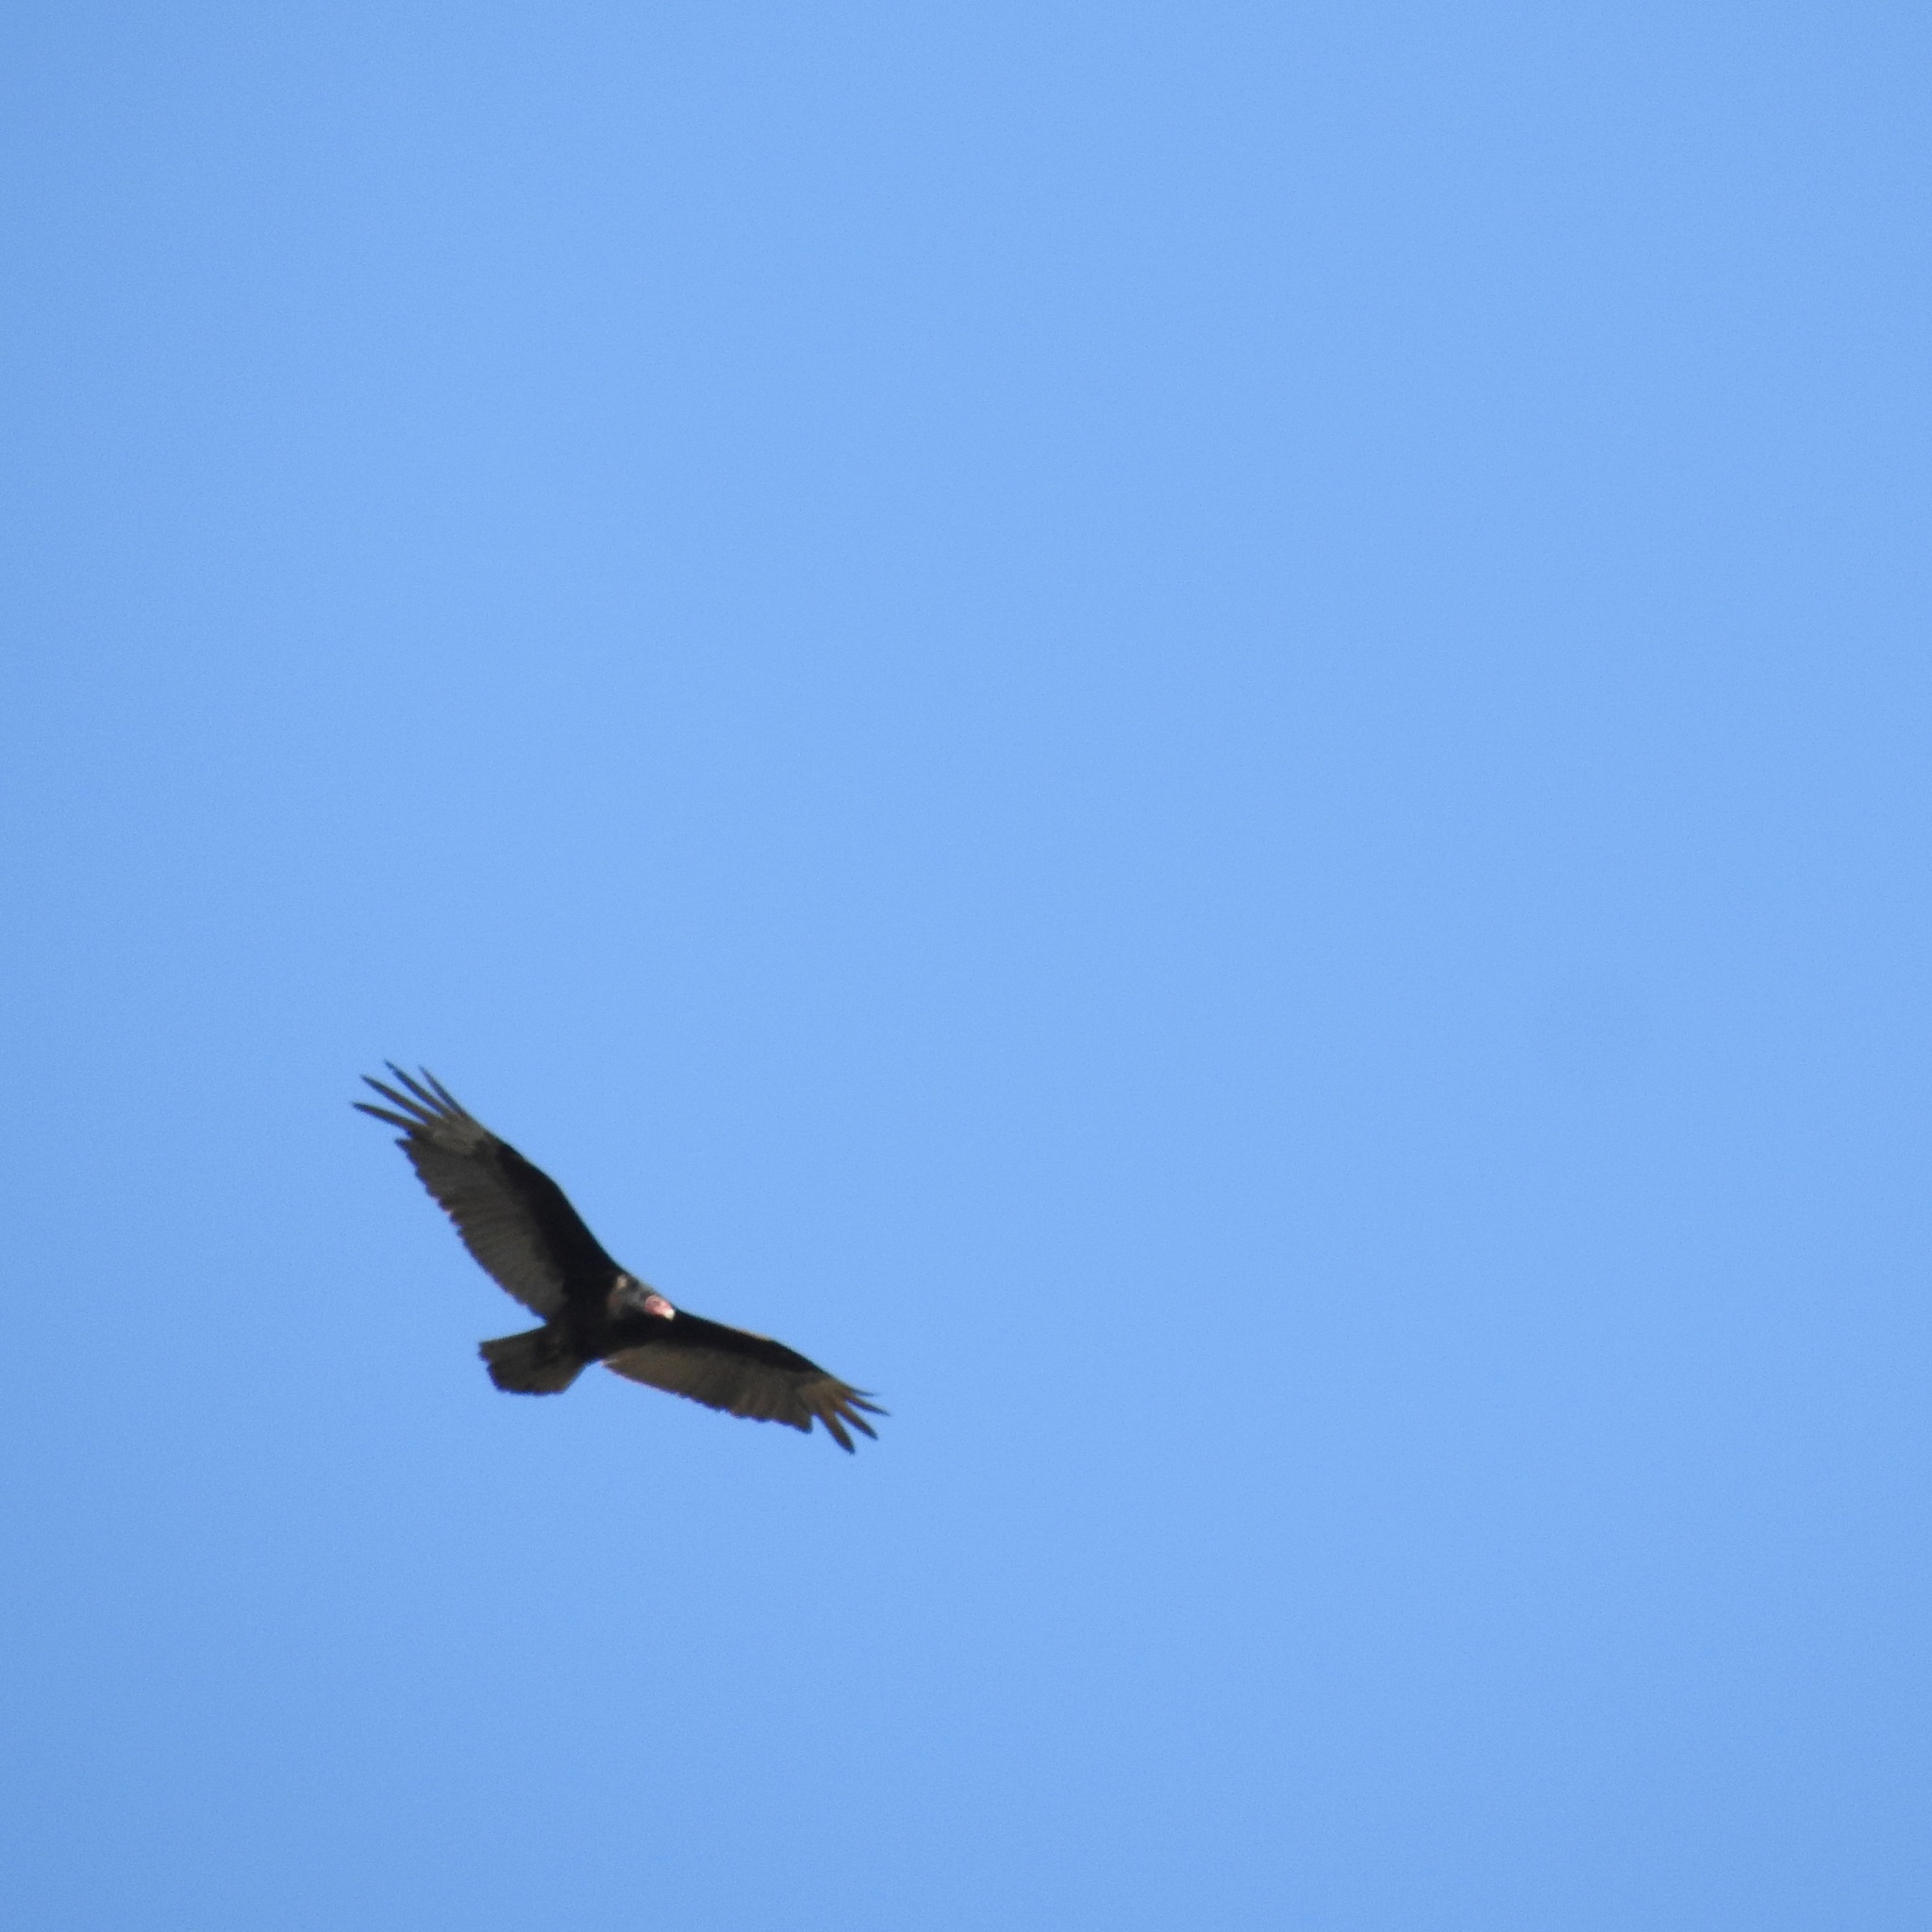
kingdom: Animalia
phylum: Chordata
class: Aves
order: Accipitriformes
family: Cathartidae
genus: Cathartes
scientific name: Cathartes aura
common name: Turkey vulture
